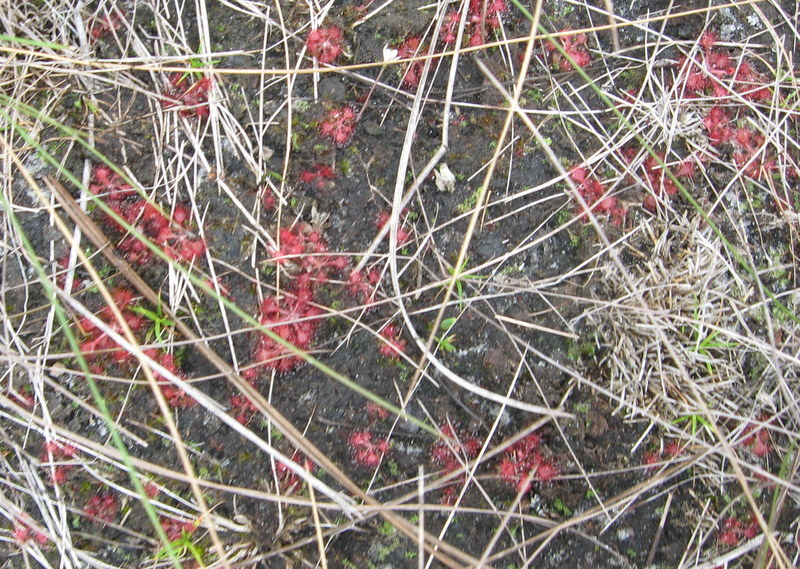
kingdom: Plantae
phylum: Tracheophyta
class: Magnoliopsida
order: Caryophyllales
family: Droseraceae
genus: Drosera
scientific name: Drosera capillaris
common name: Pink sundew
